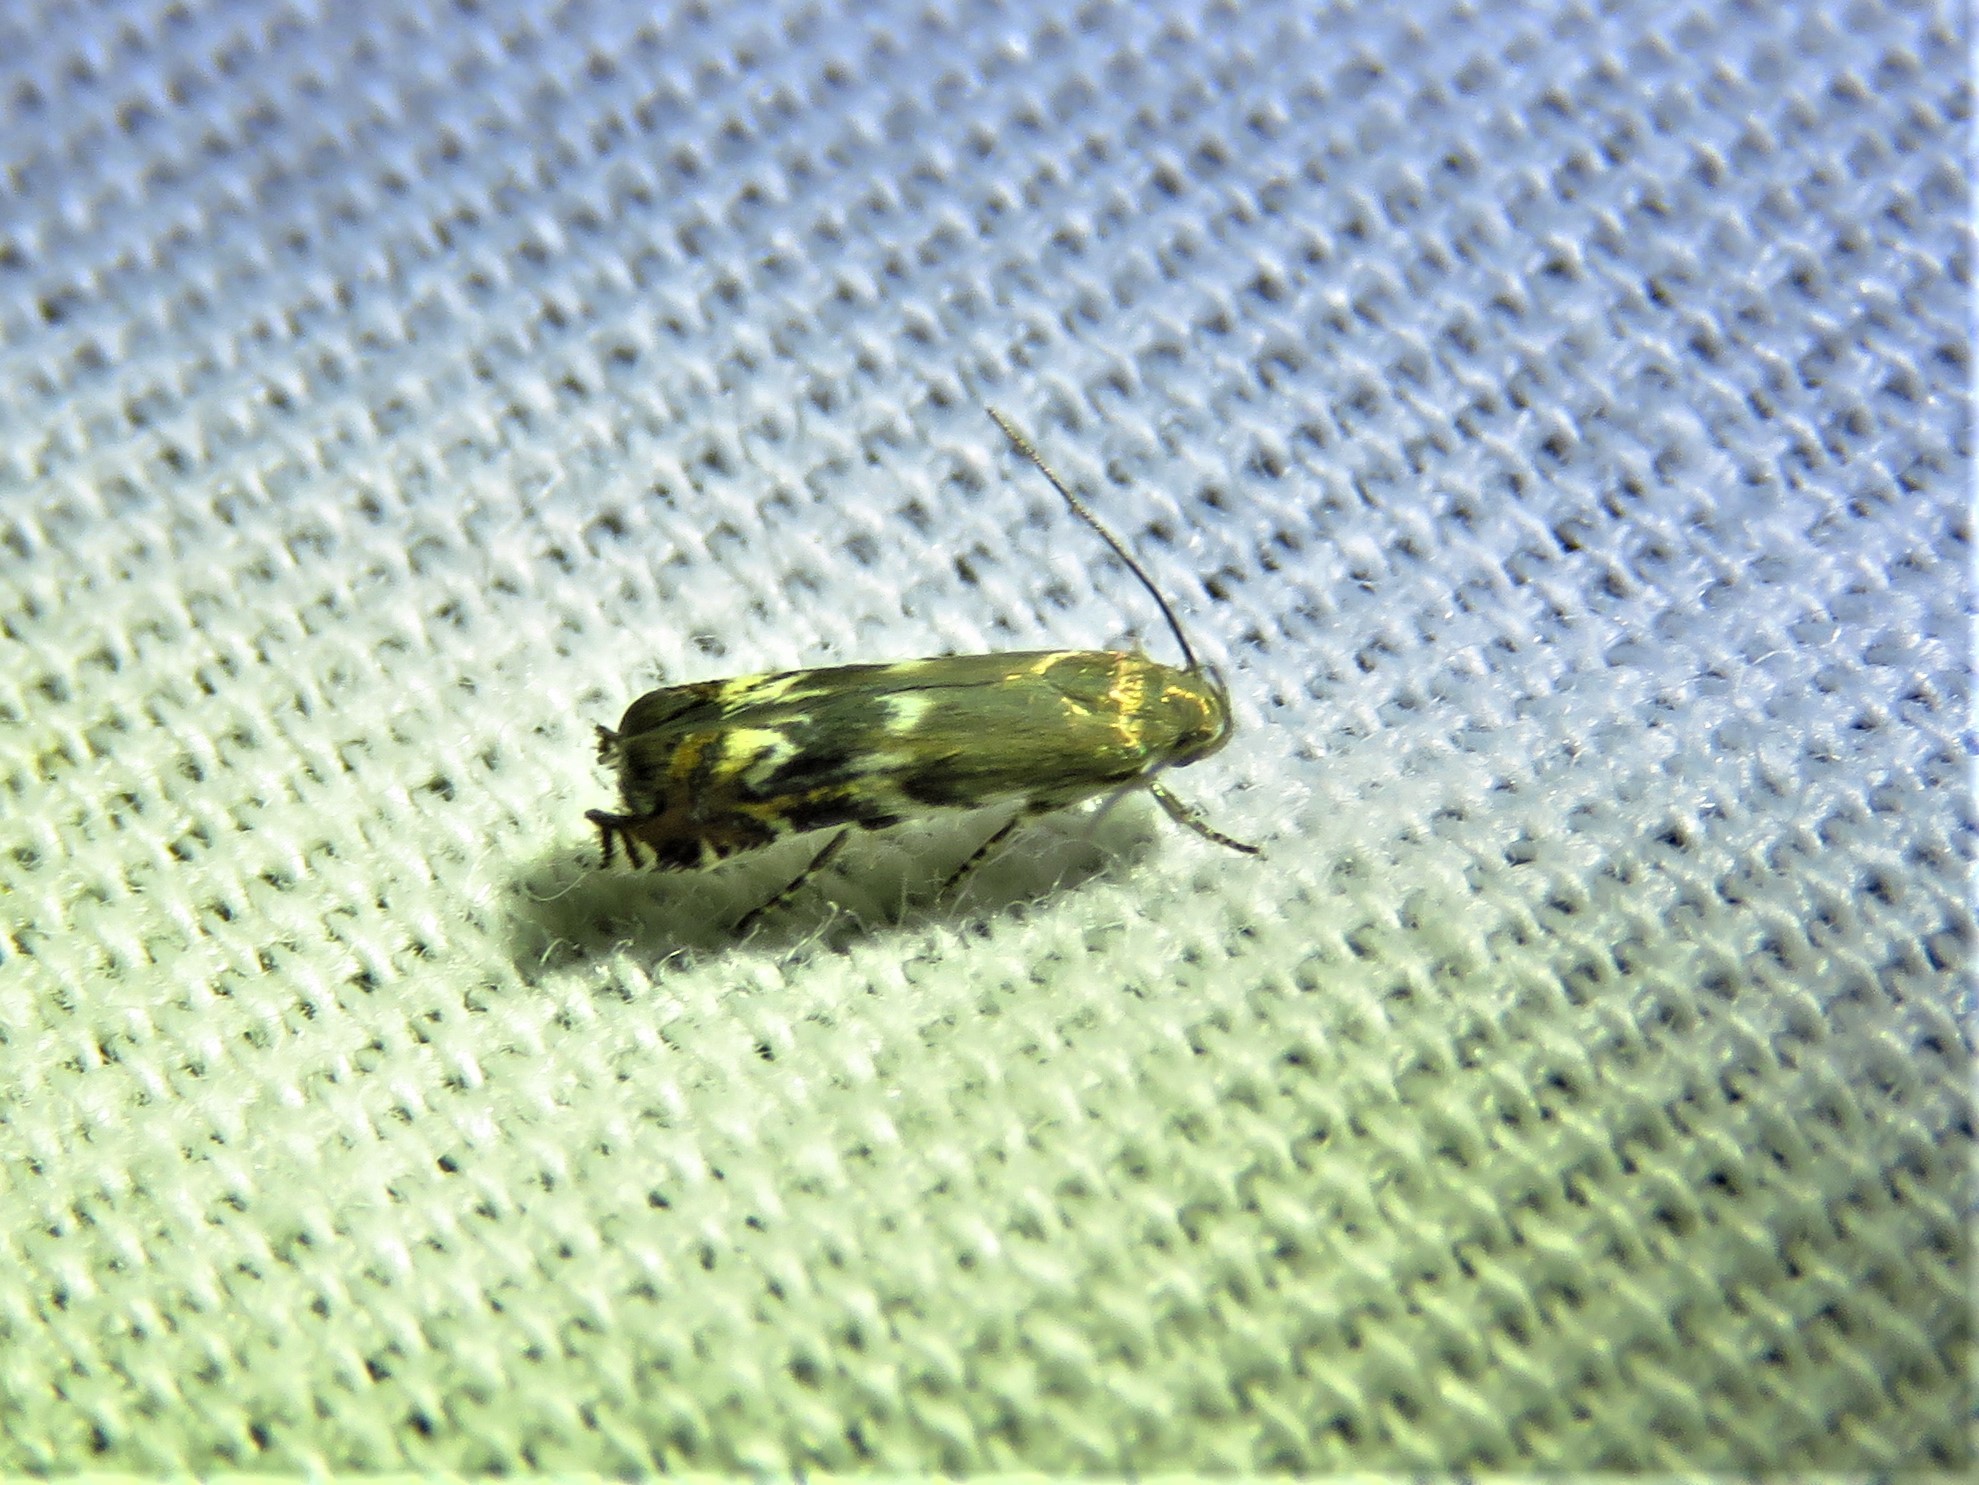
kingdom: Animalia
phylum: Arthropoda
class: Insecta
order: Lepidoptera
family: Gelechiidae
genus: Calliprora
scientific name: Calliprora sexstrigella
